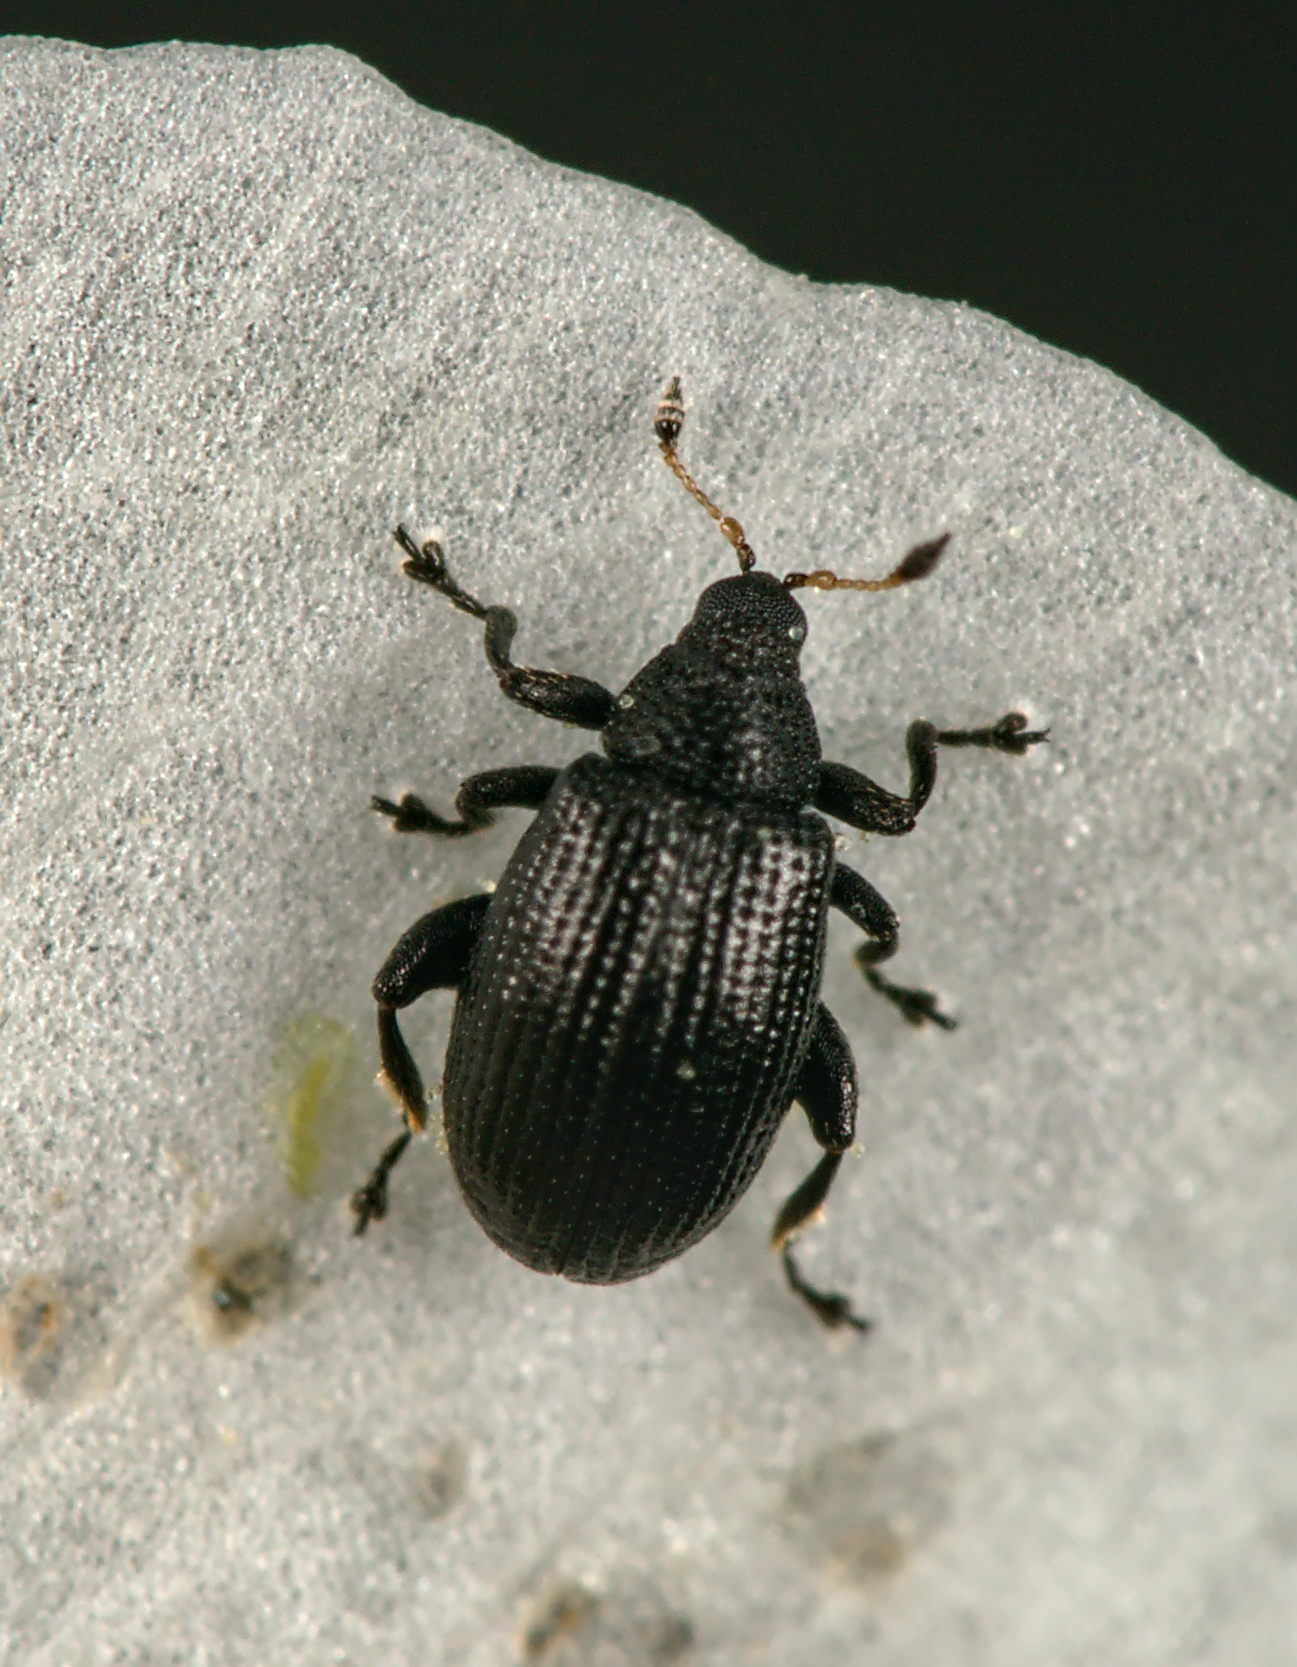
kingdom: Animalia
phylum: Arthropoda
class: Insecta
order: Coleoptera
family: Curculionidae
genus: Rhamphus
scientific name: Rhamphus oxyacanthae
